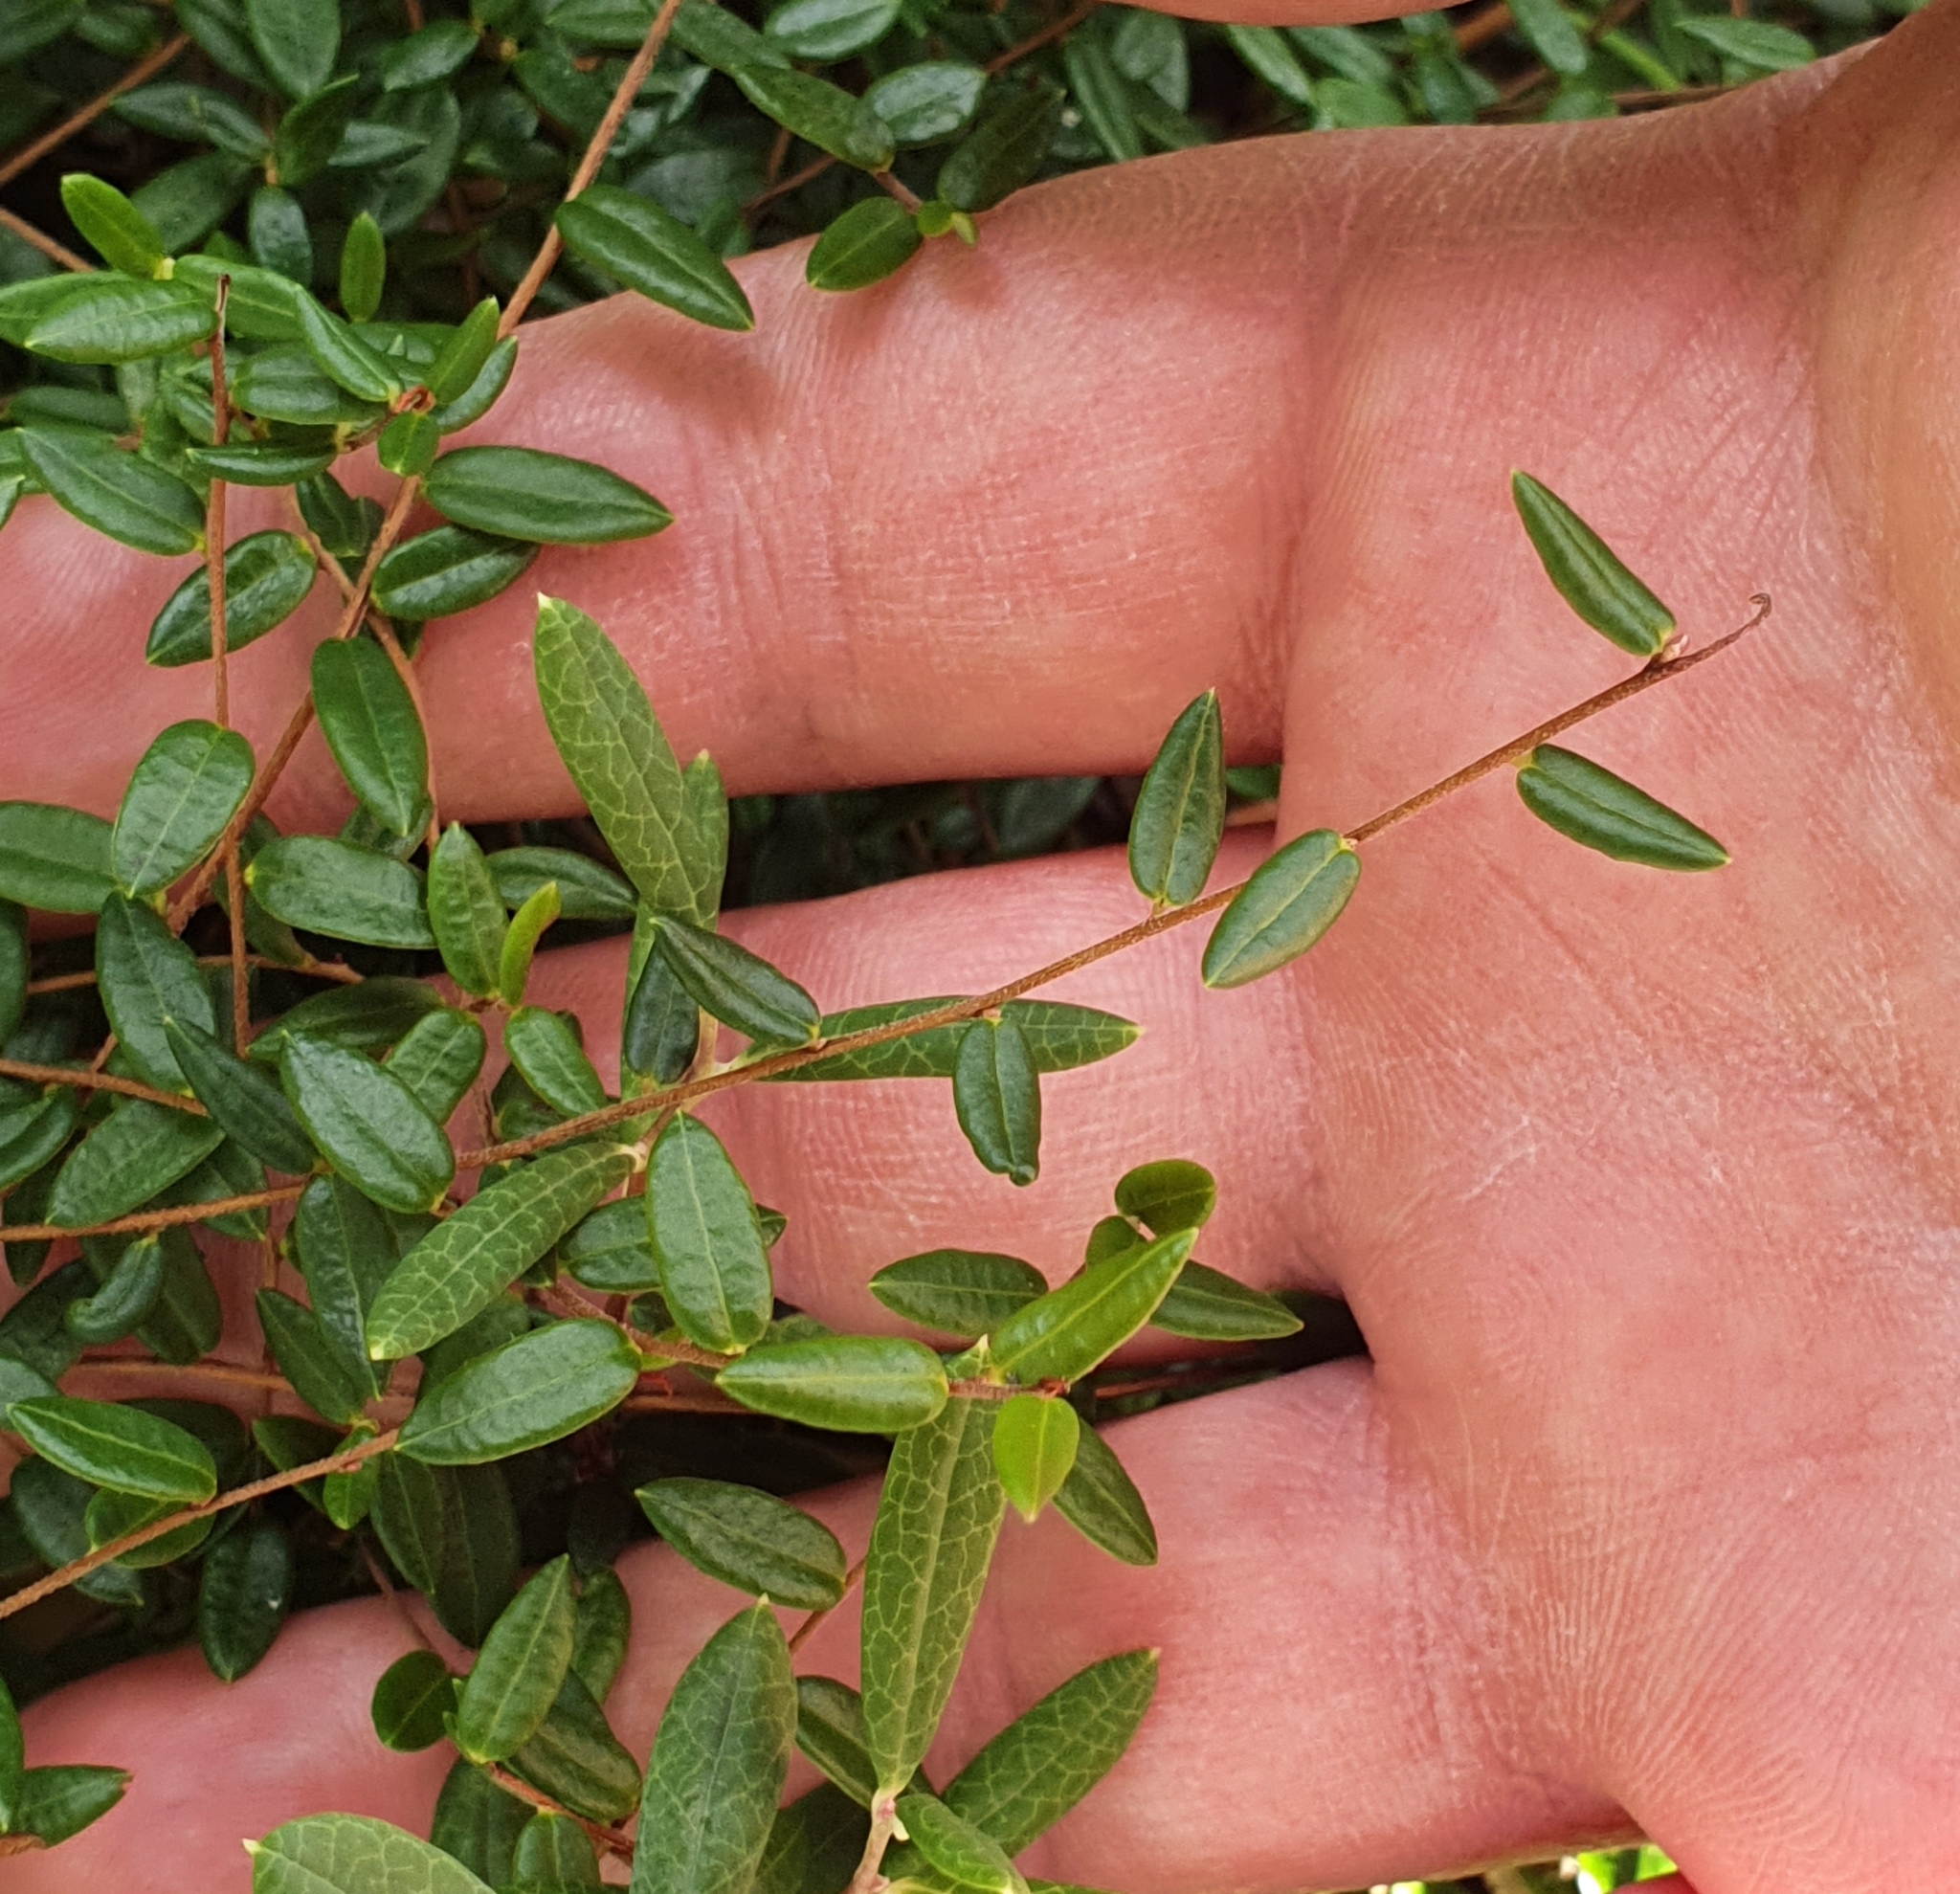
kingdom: Plantae
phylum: Tracheophyta
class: Magnoliopsida
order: Ericales
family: Ericaceae
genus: Vaccinium
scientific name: Vaccinium oxycoccos
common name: Cranberry
